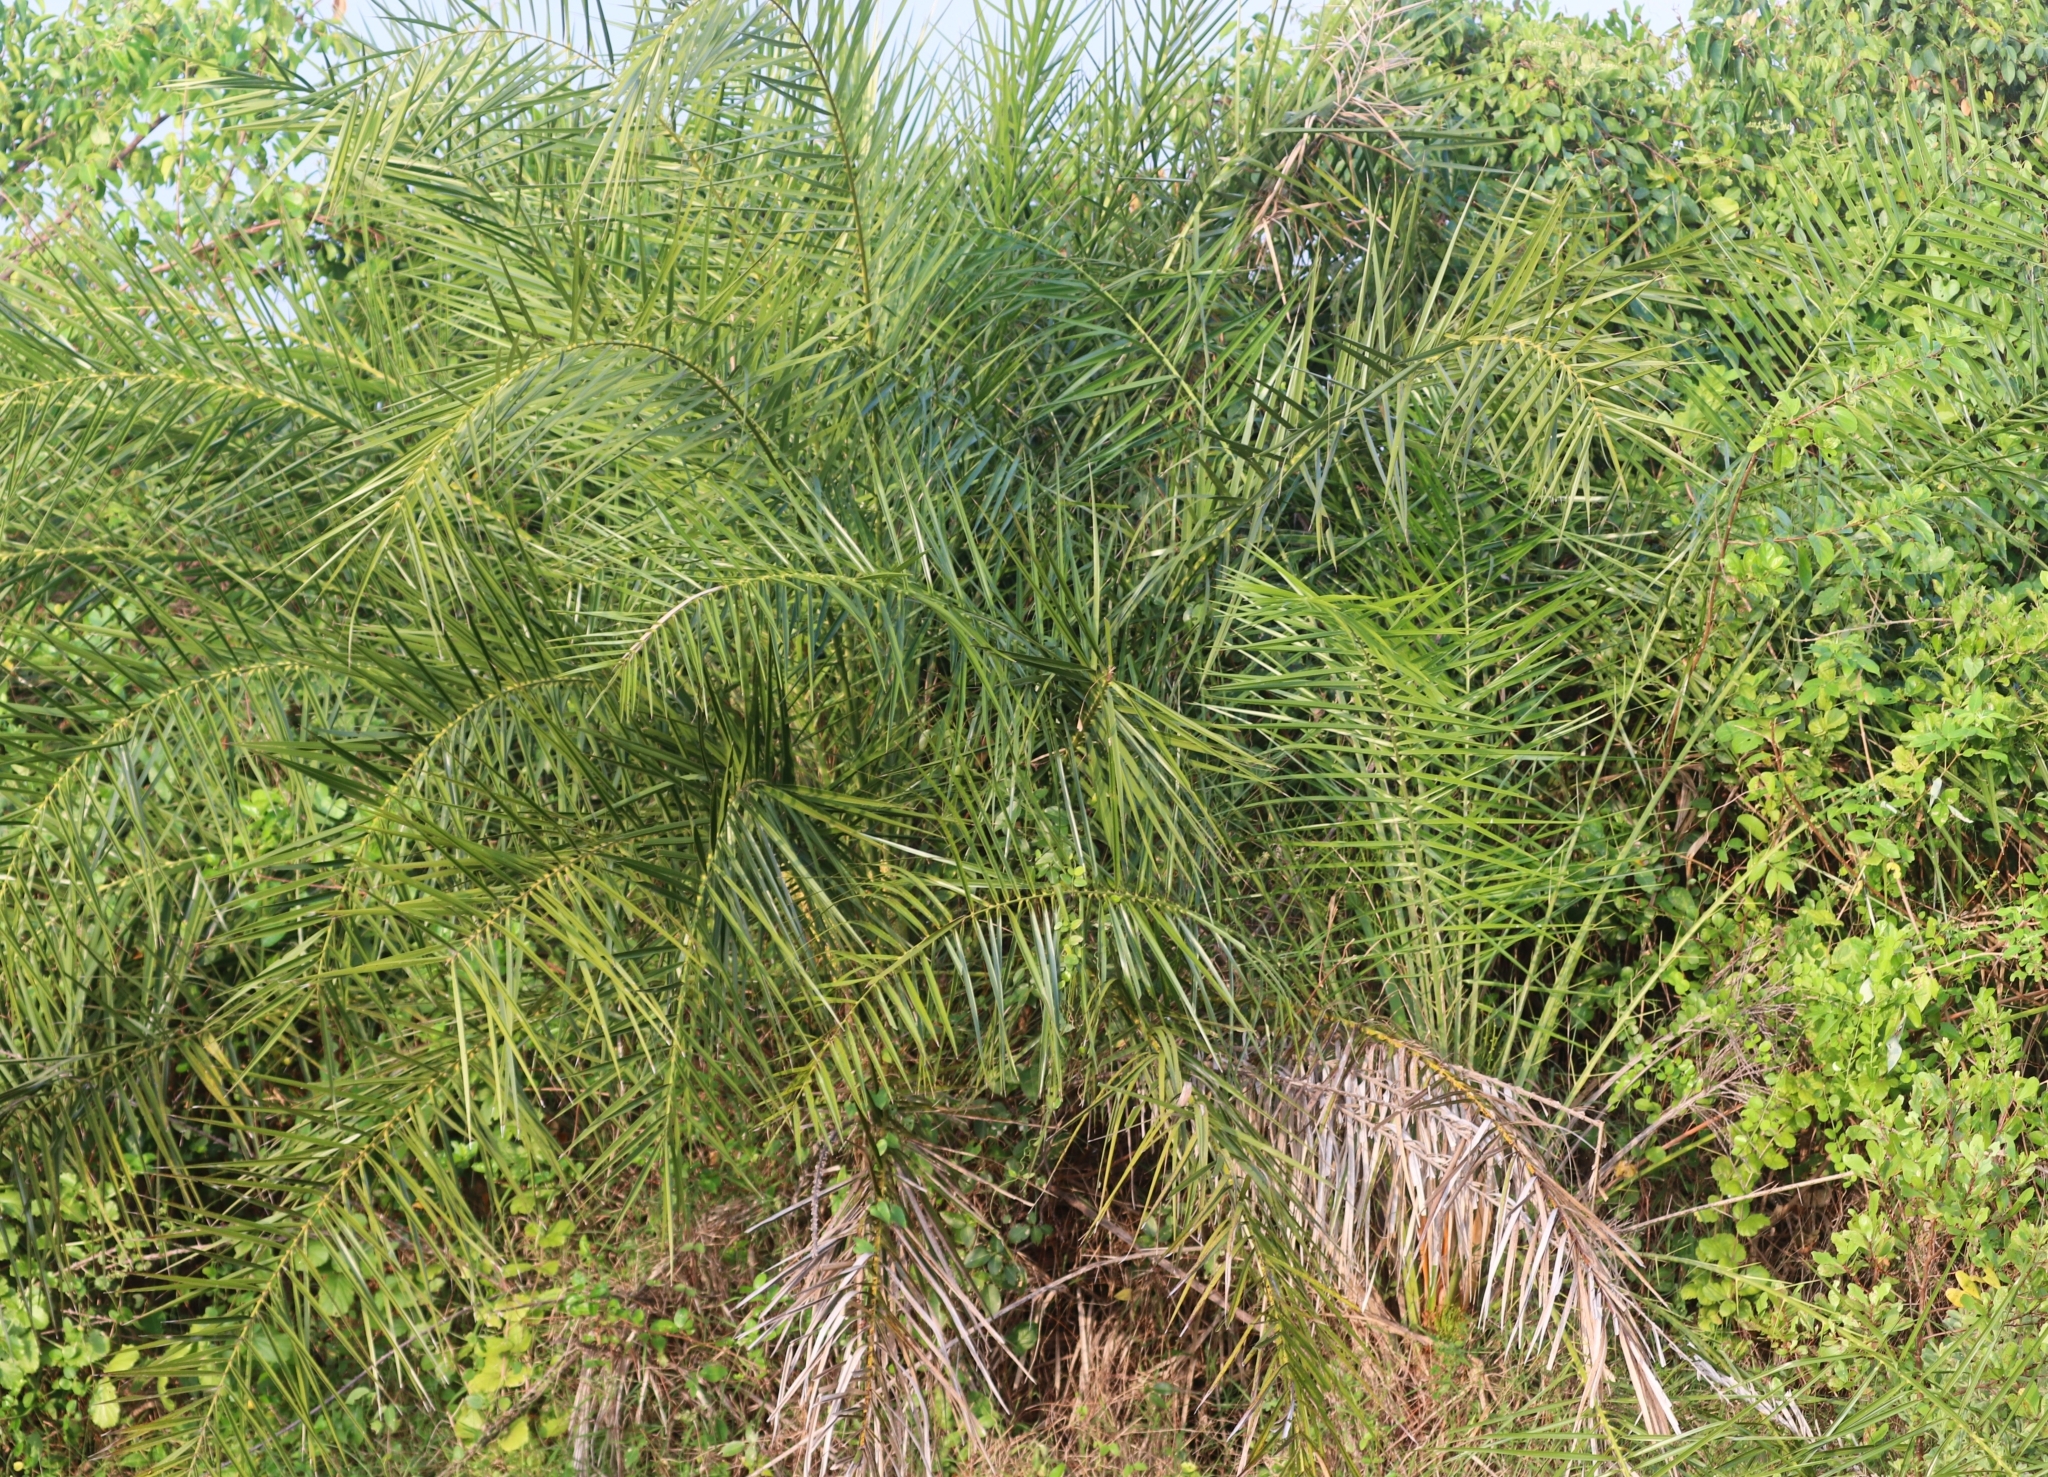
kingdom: Plantae
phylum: Tracheophyta
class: Liliopsida
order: Arecales
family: Arecaceae
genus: Phoenix
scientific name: Phoenix pusilla
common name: Flour palm
